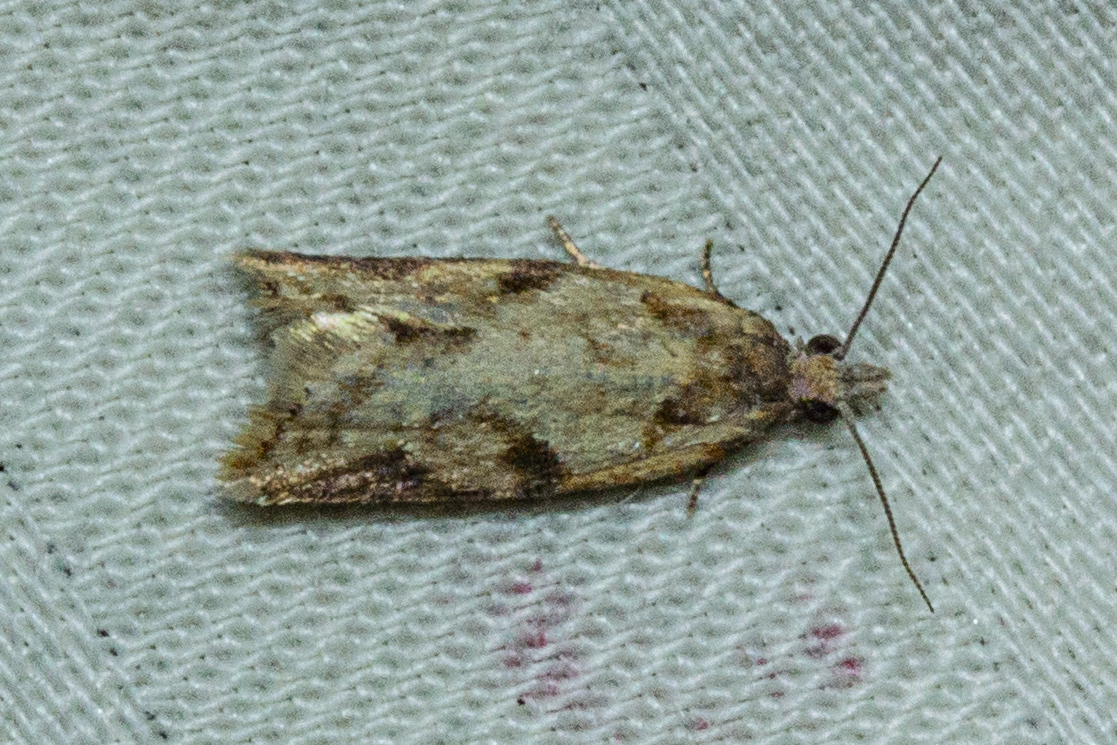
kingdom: Animalia
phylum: Arthropoda
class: Insecta
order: Lepidoptera
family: Tortricidae
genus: Capua
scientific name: Capua semiferana
